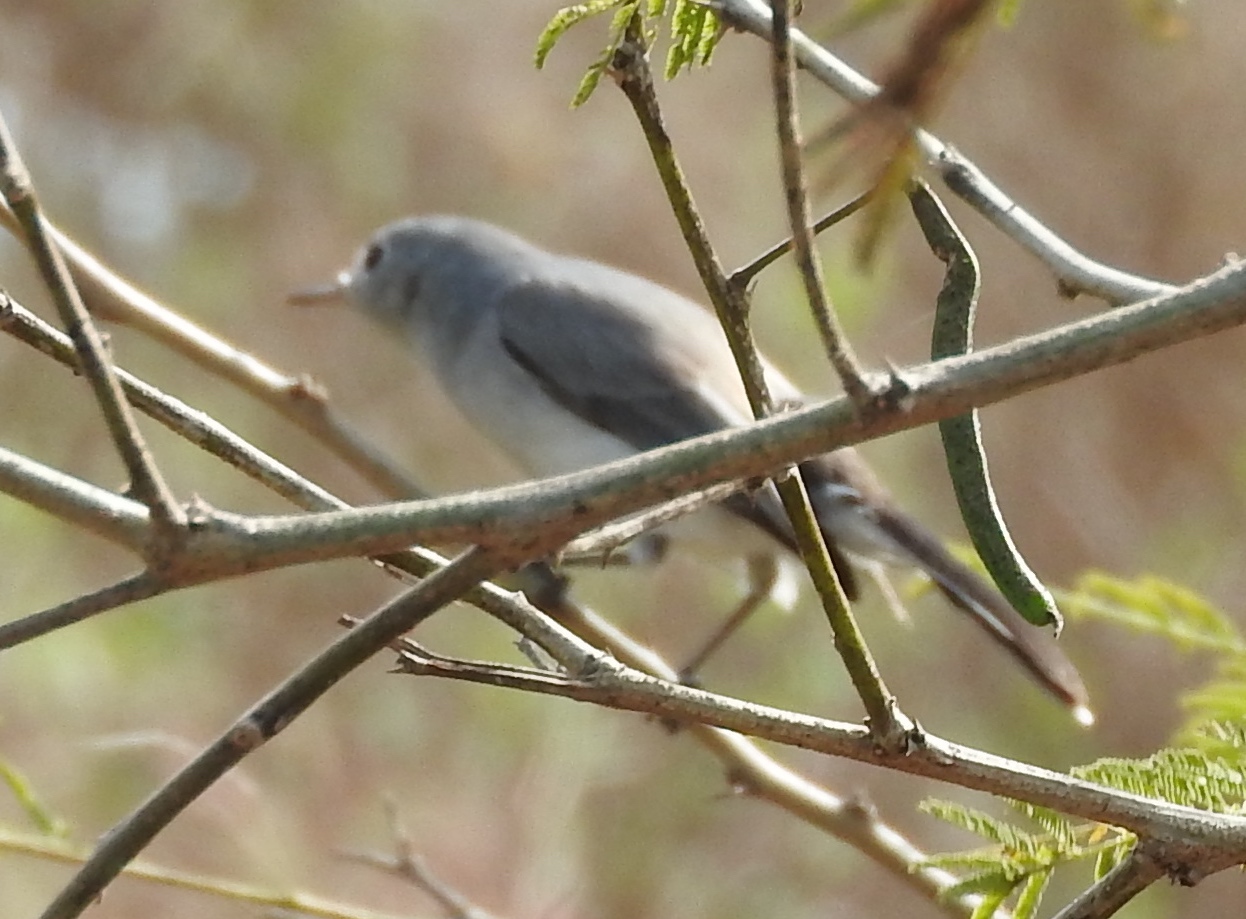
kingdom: Animalia
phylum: Chordata
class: Aves
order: Passeriformes
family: Polioptilidae
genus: Polioptila
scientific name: Polioptila caerulea
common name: Blue-gray gnatcatcher
